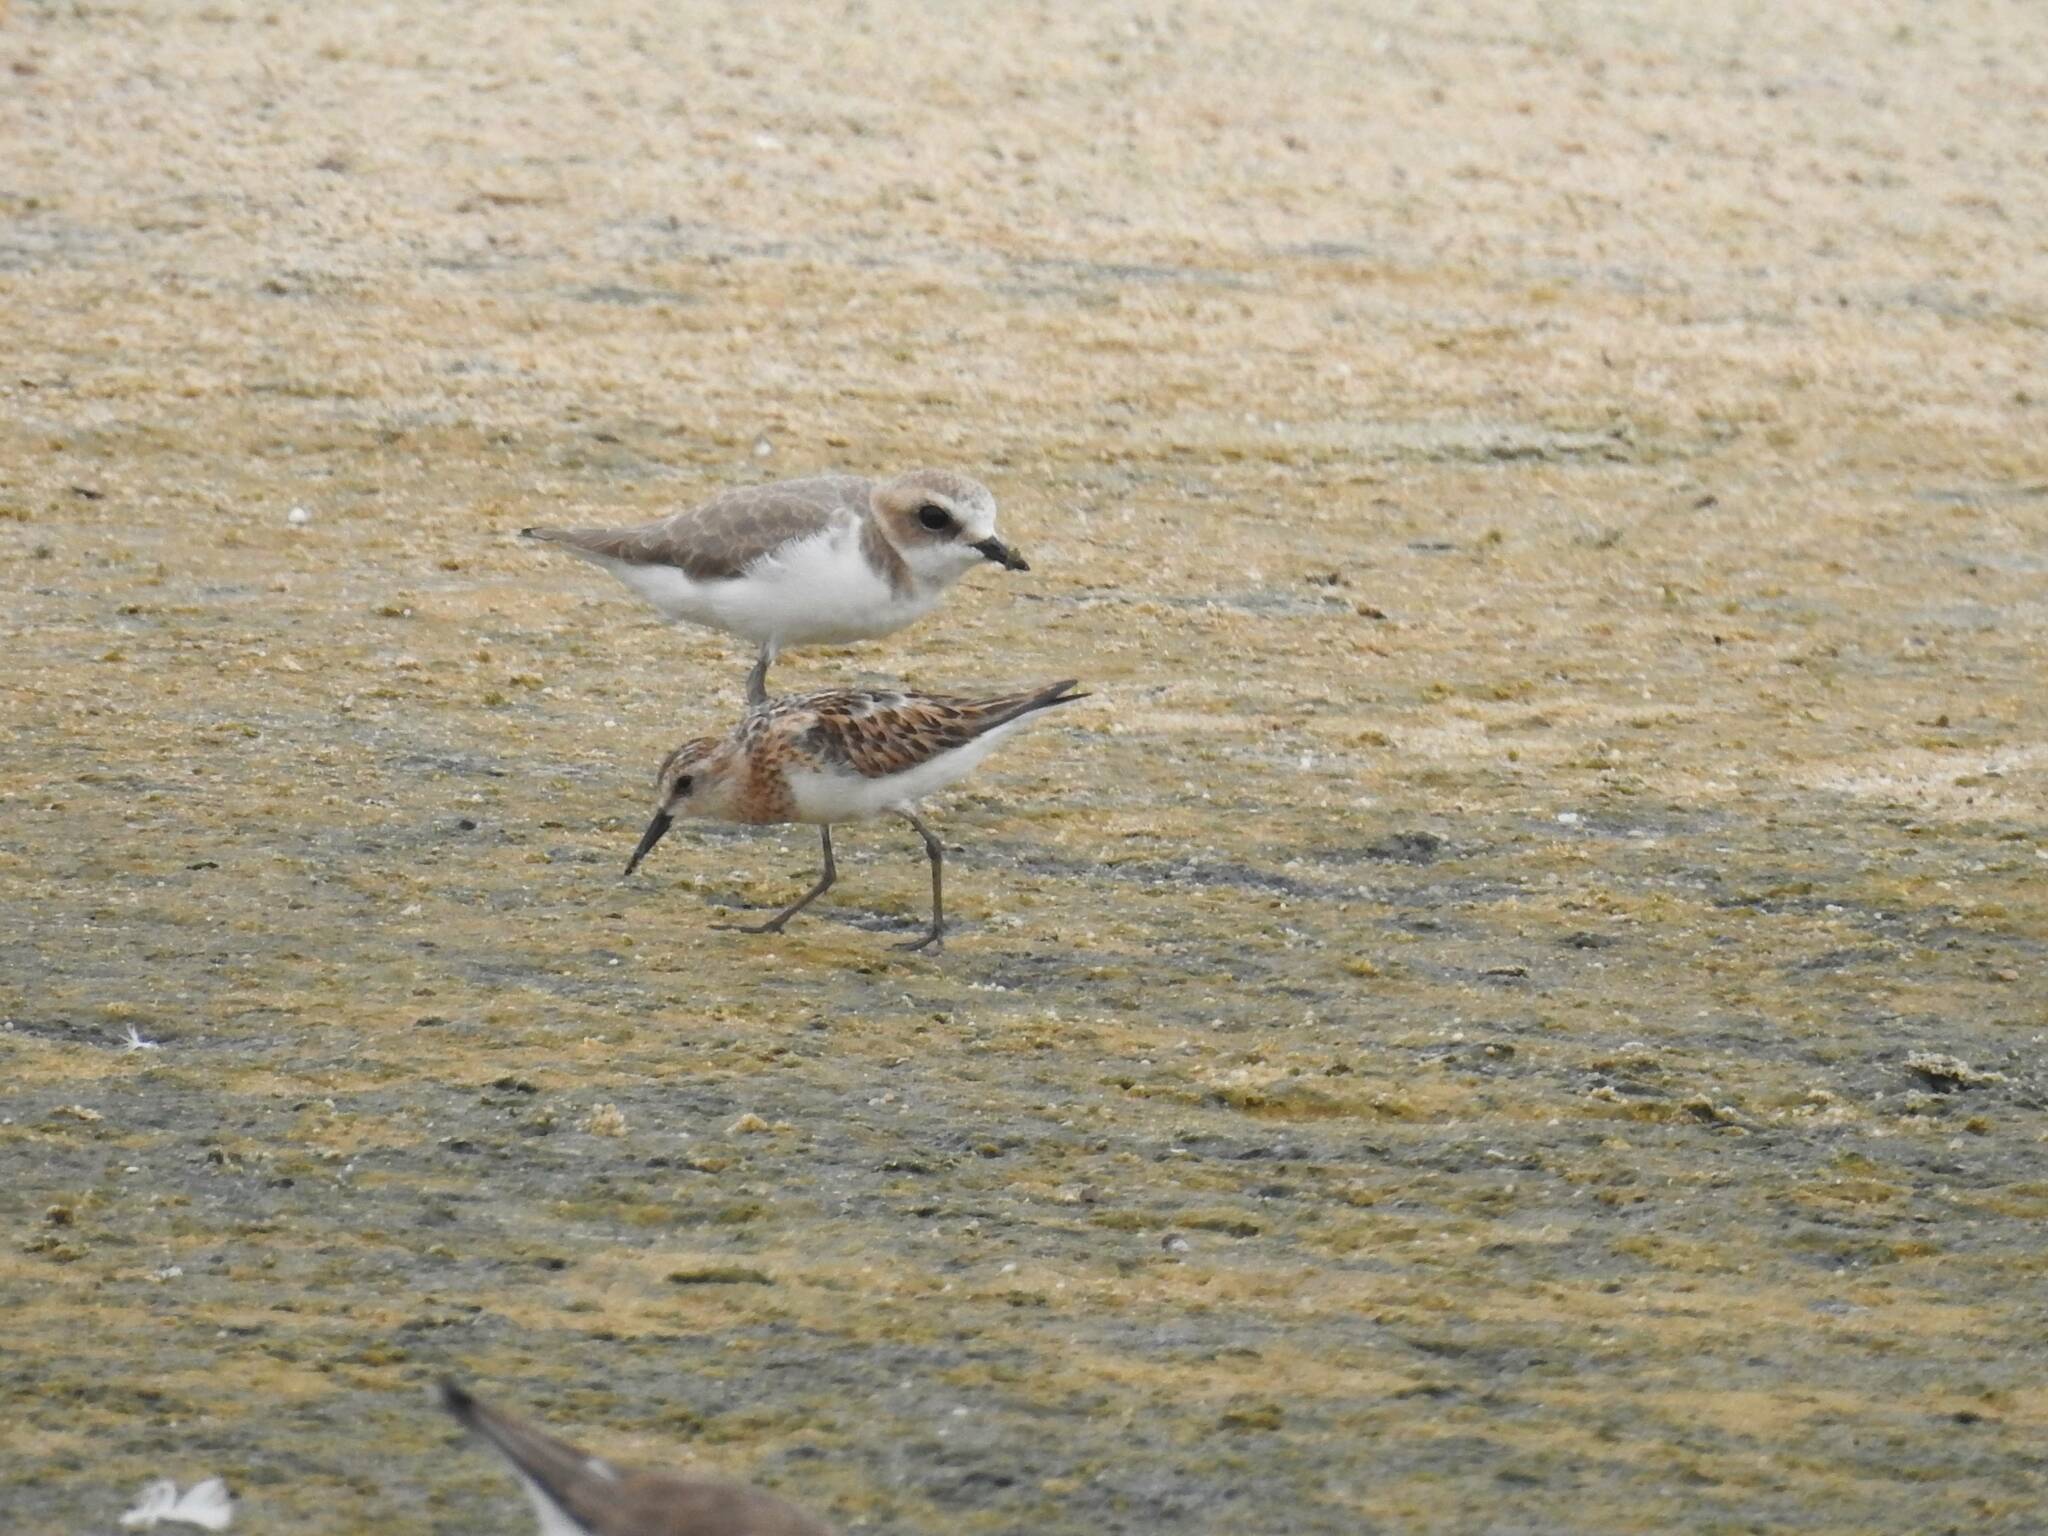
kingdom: Animalia
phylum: Chordata
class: Aves
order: Charadriiformes
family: Scolopacidae
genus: Calidris
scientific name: Calidris minuta
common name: Little stint
